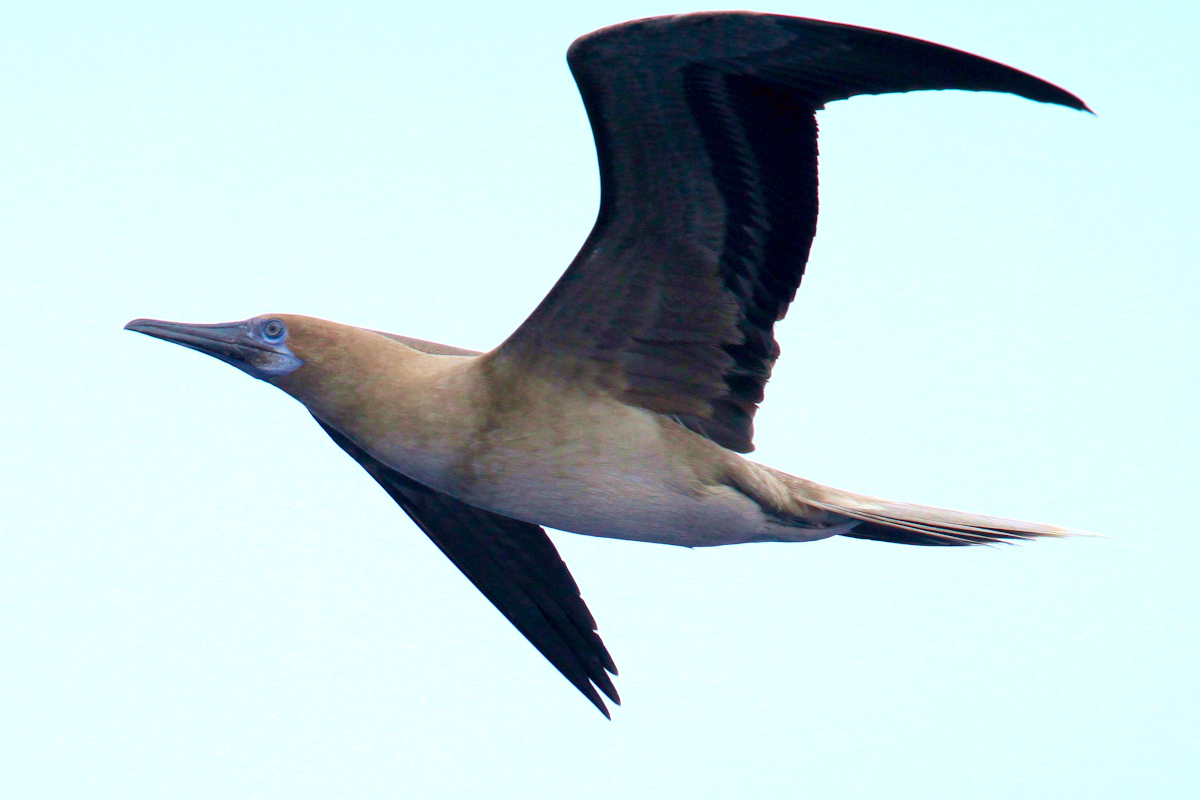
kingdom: Animalia
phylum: Chordata
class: Aves
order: Suliformes
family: Sulidae
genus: Sula
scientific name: Sula sula
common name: Red-footed booby
